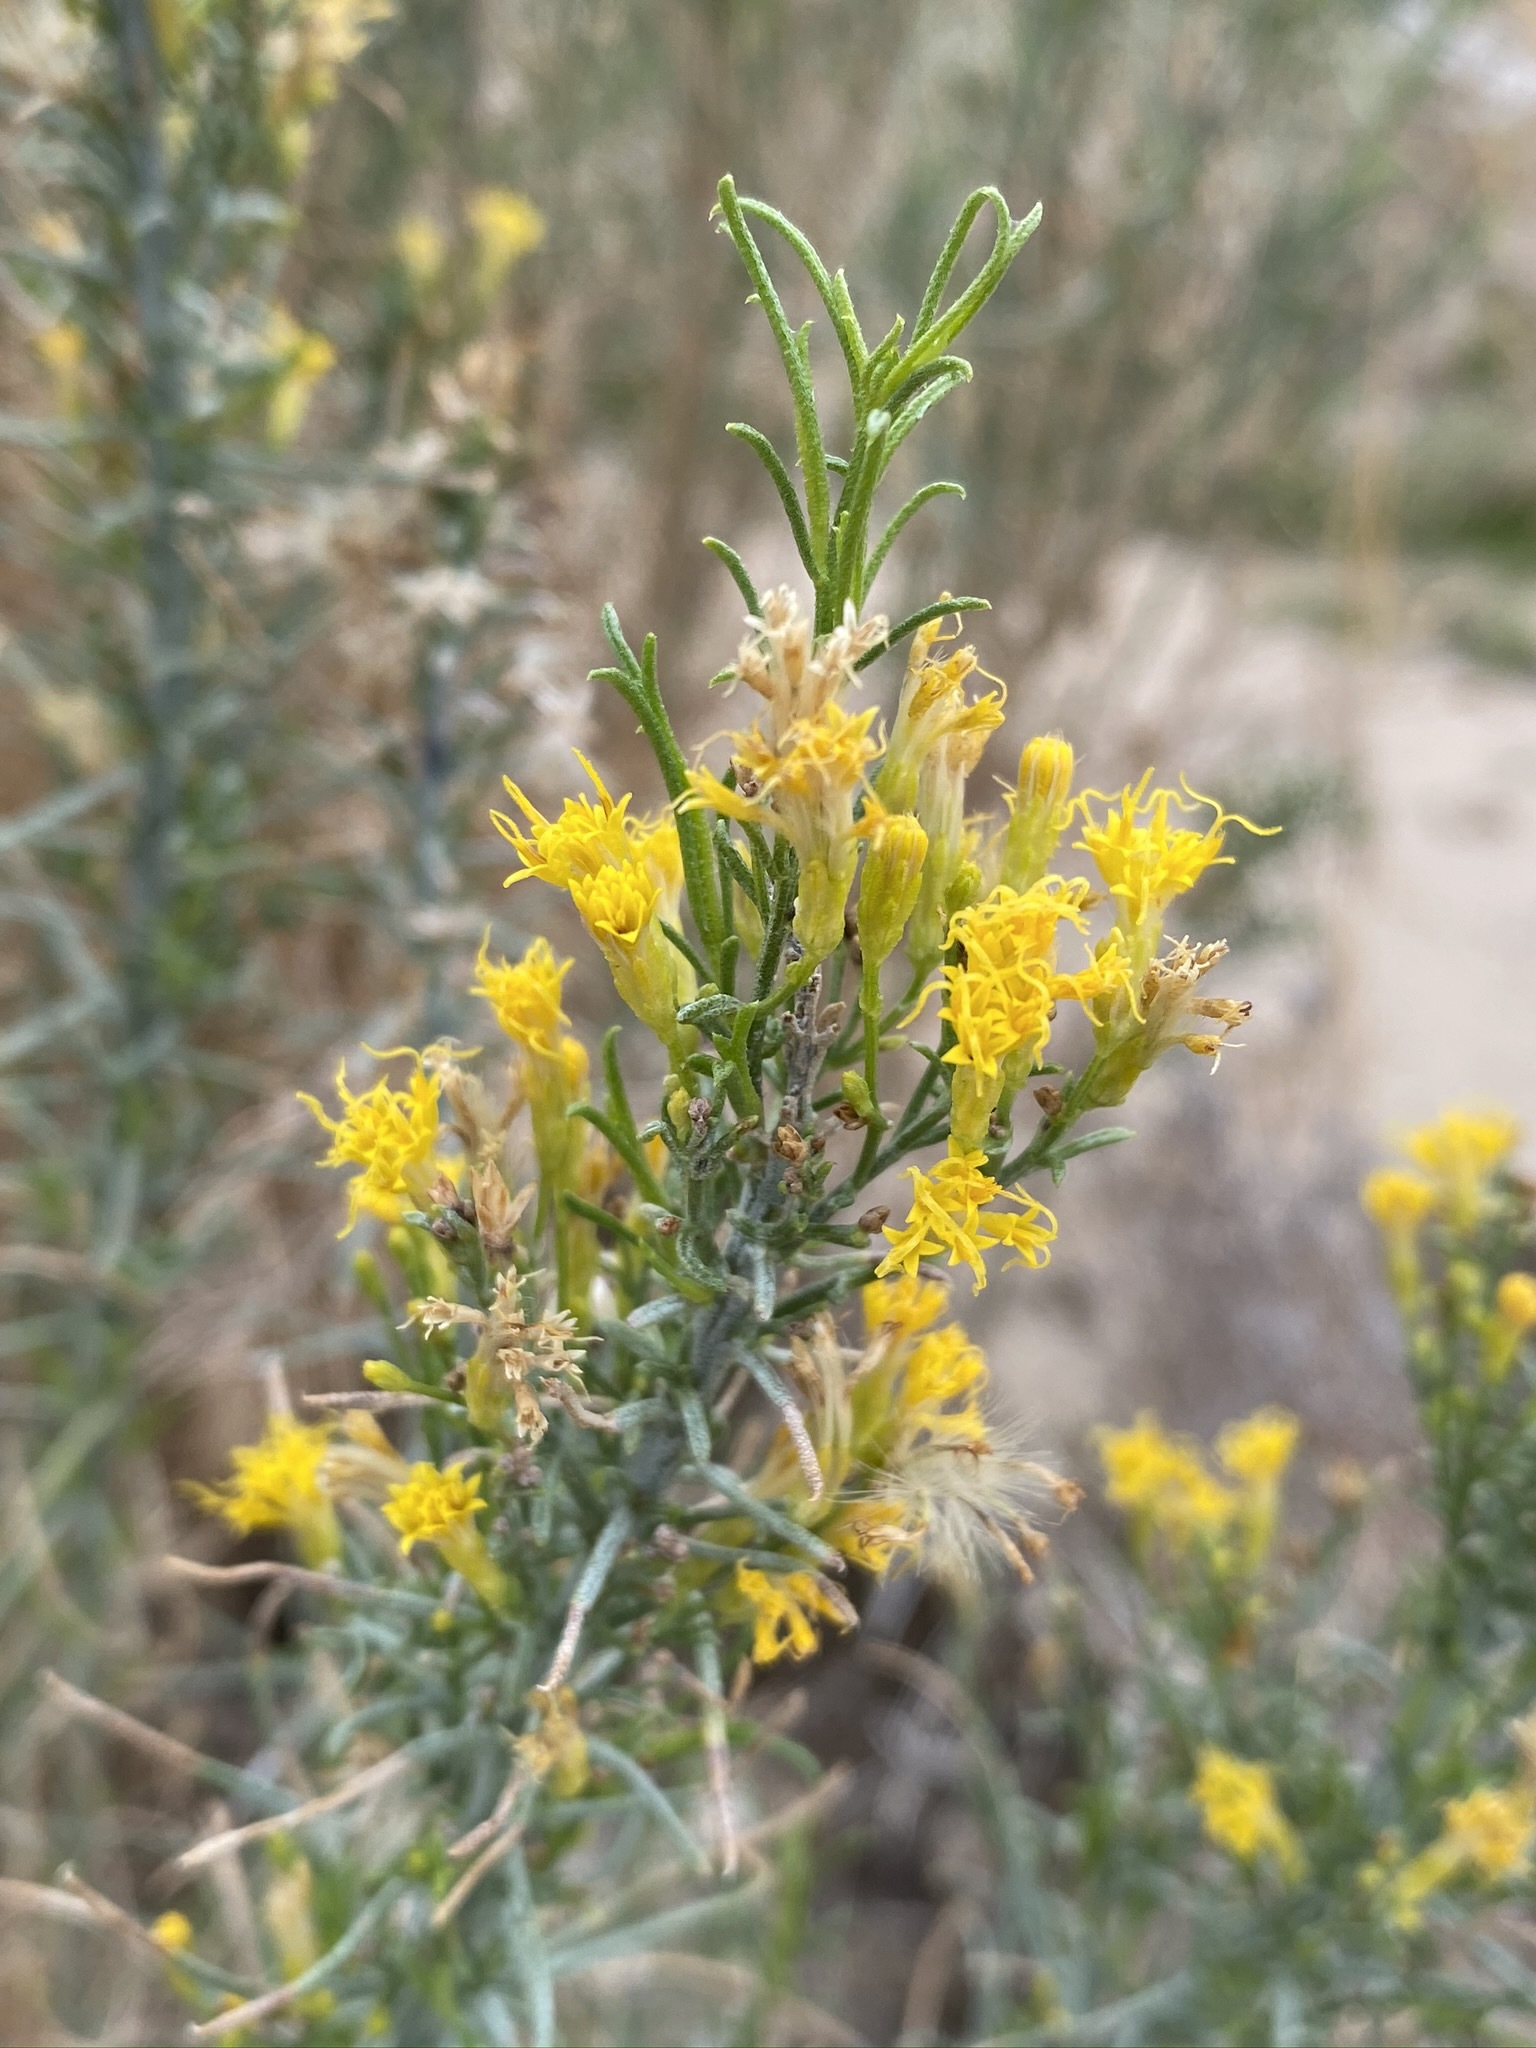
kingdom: Plantae
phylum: Tracheophyta
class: Magnoliopsida
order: Asterales
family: Asteraceae
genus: Ericameria
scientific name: Ericameria paniculata
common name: Punctate rabbitbrush
